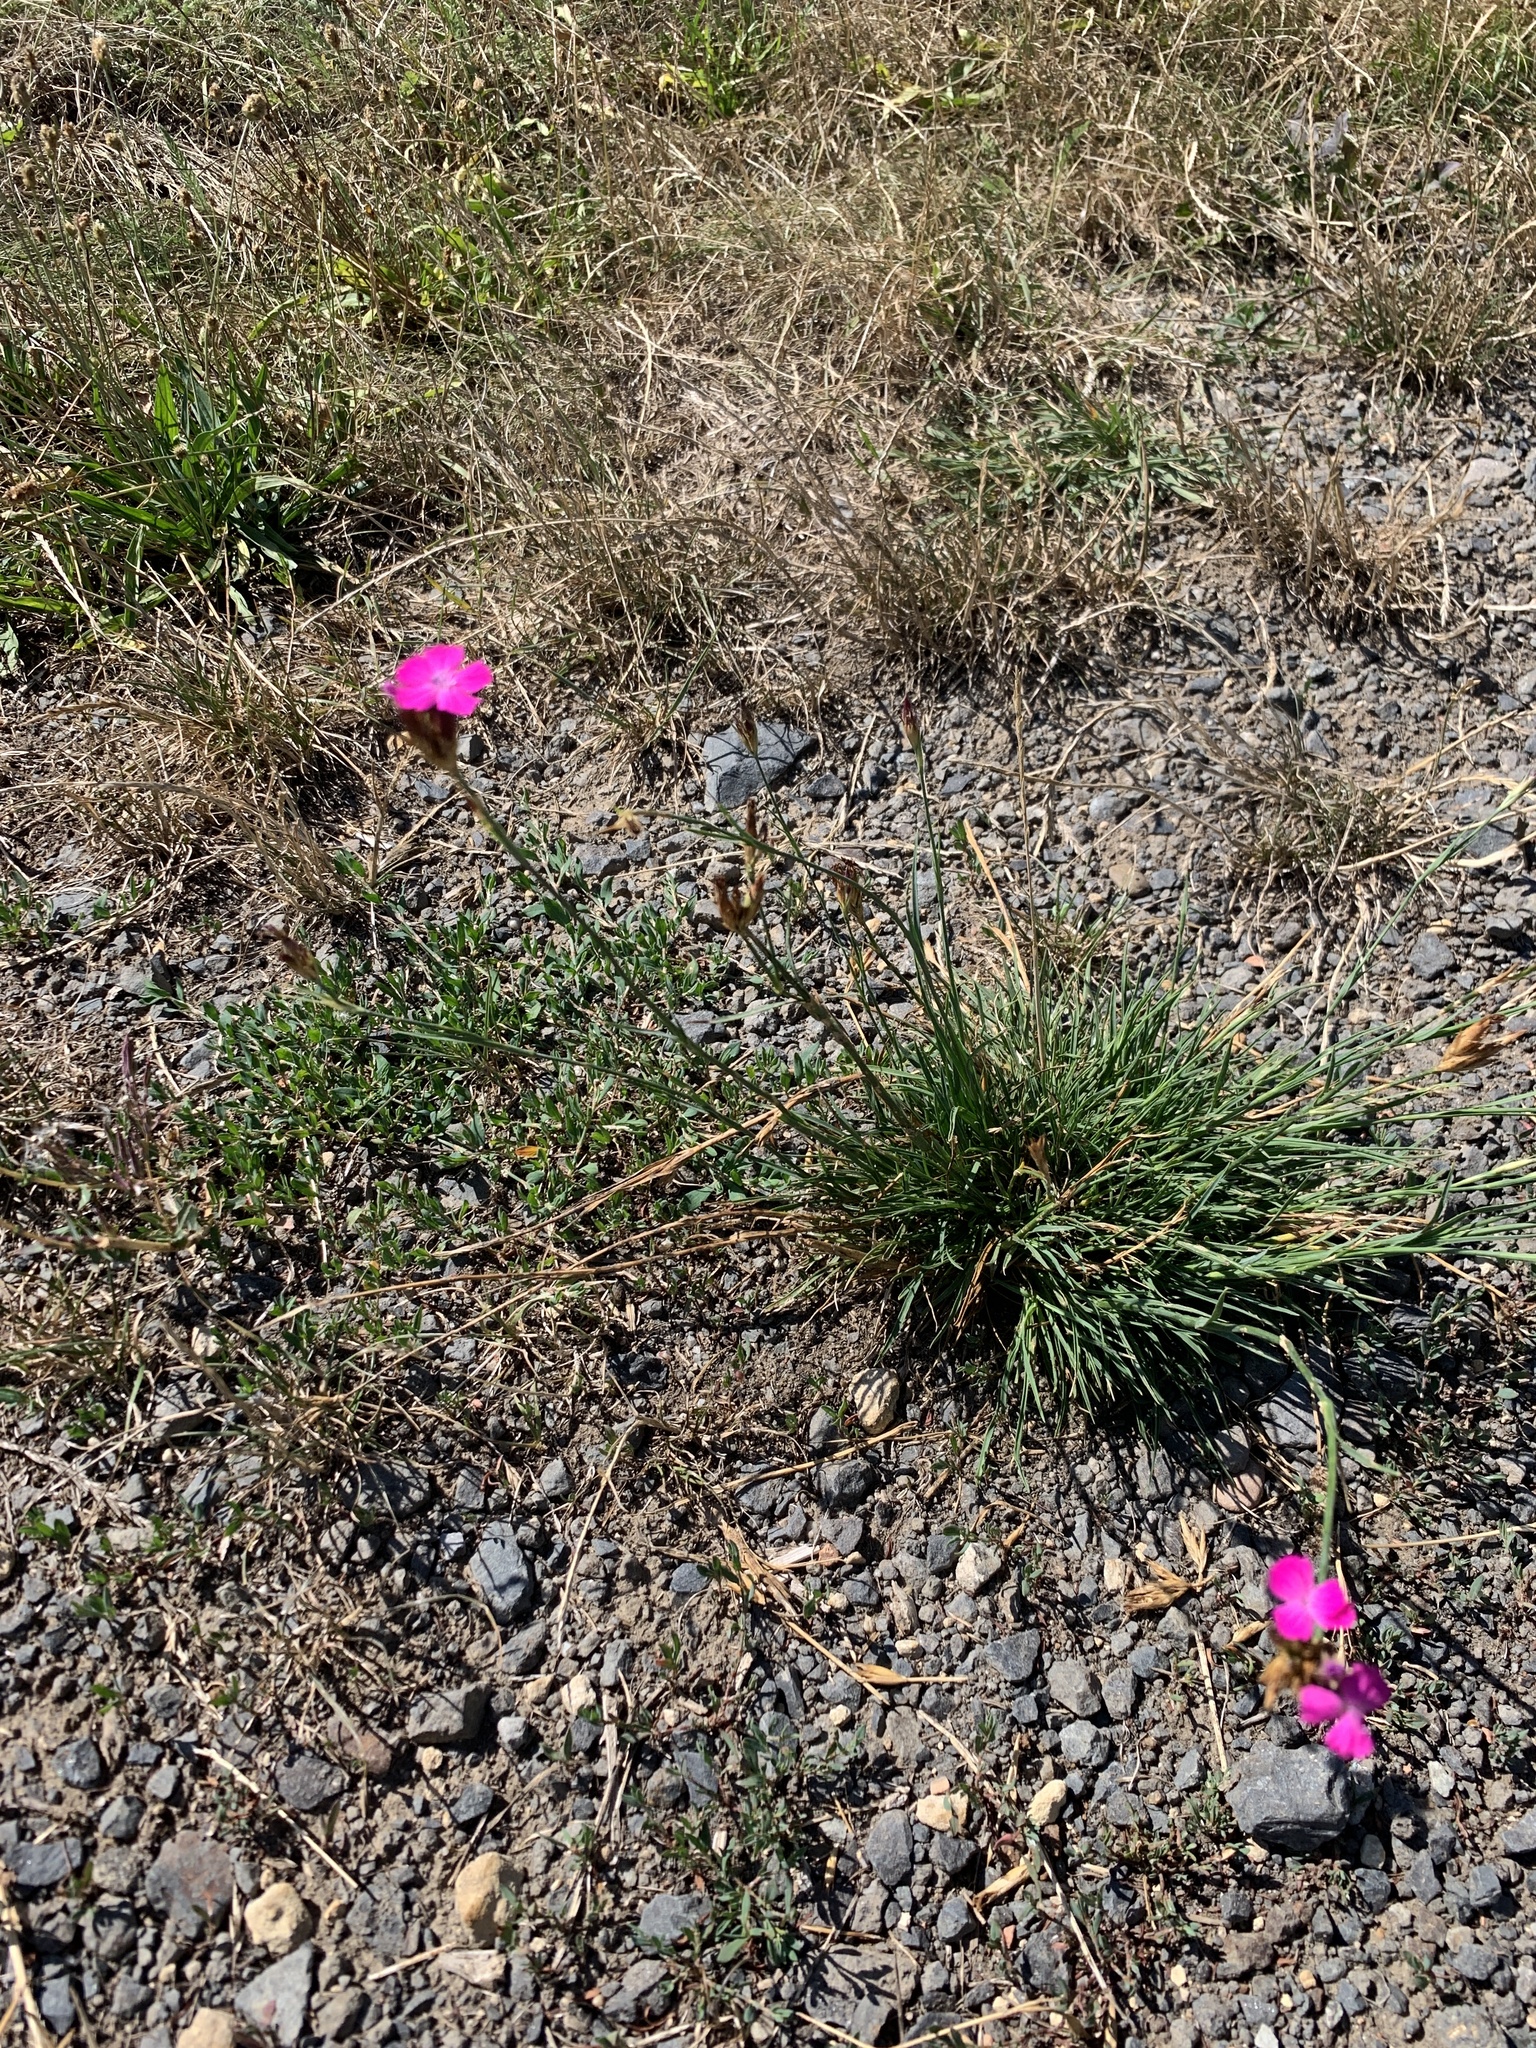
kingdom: Plantae
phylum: Tracheophyta
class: Magnoliopsida
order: Caryophyllales
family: Caryophyllaceae
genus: Dianthus
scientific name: Dianthus carthusianorum
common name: Carthusian pink
